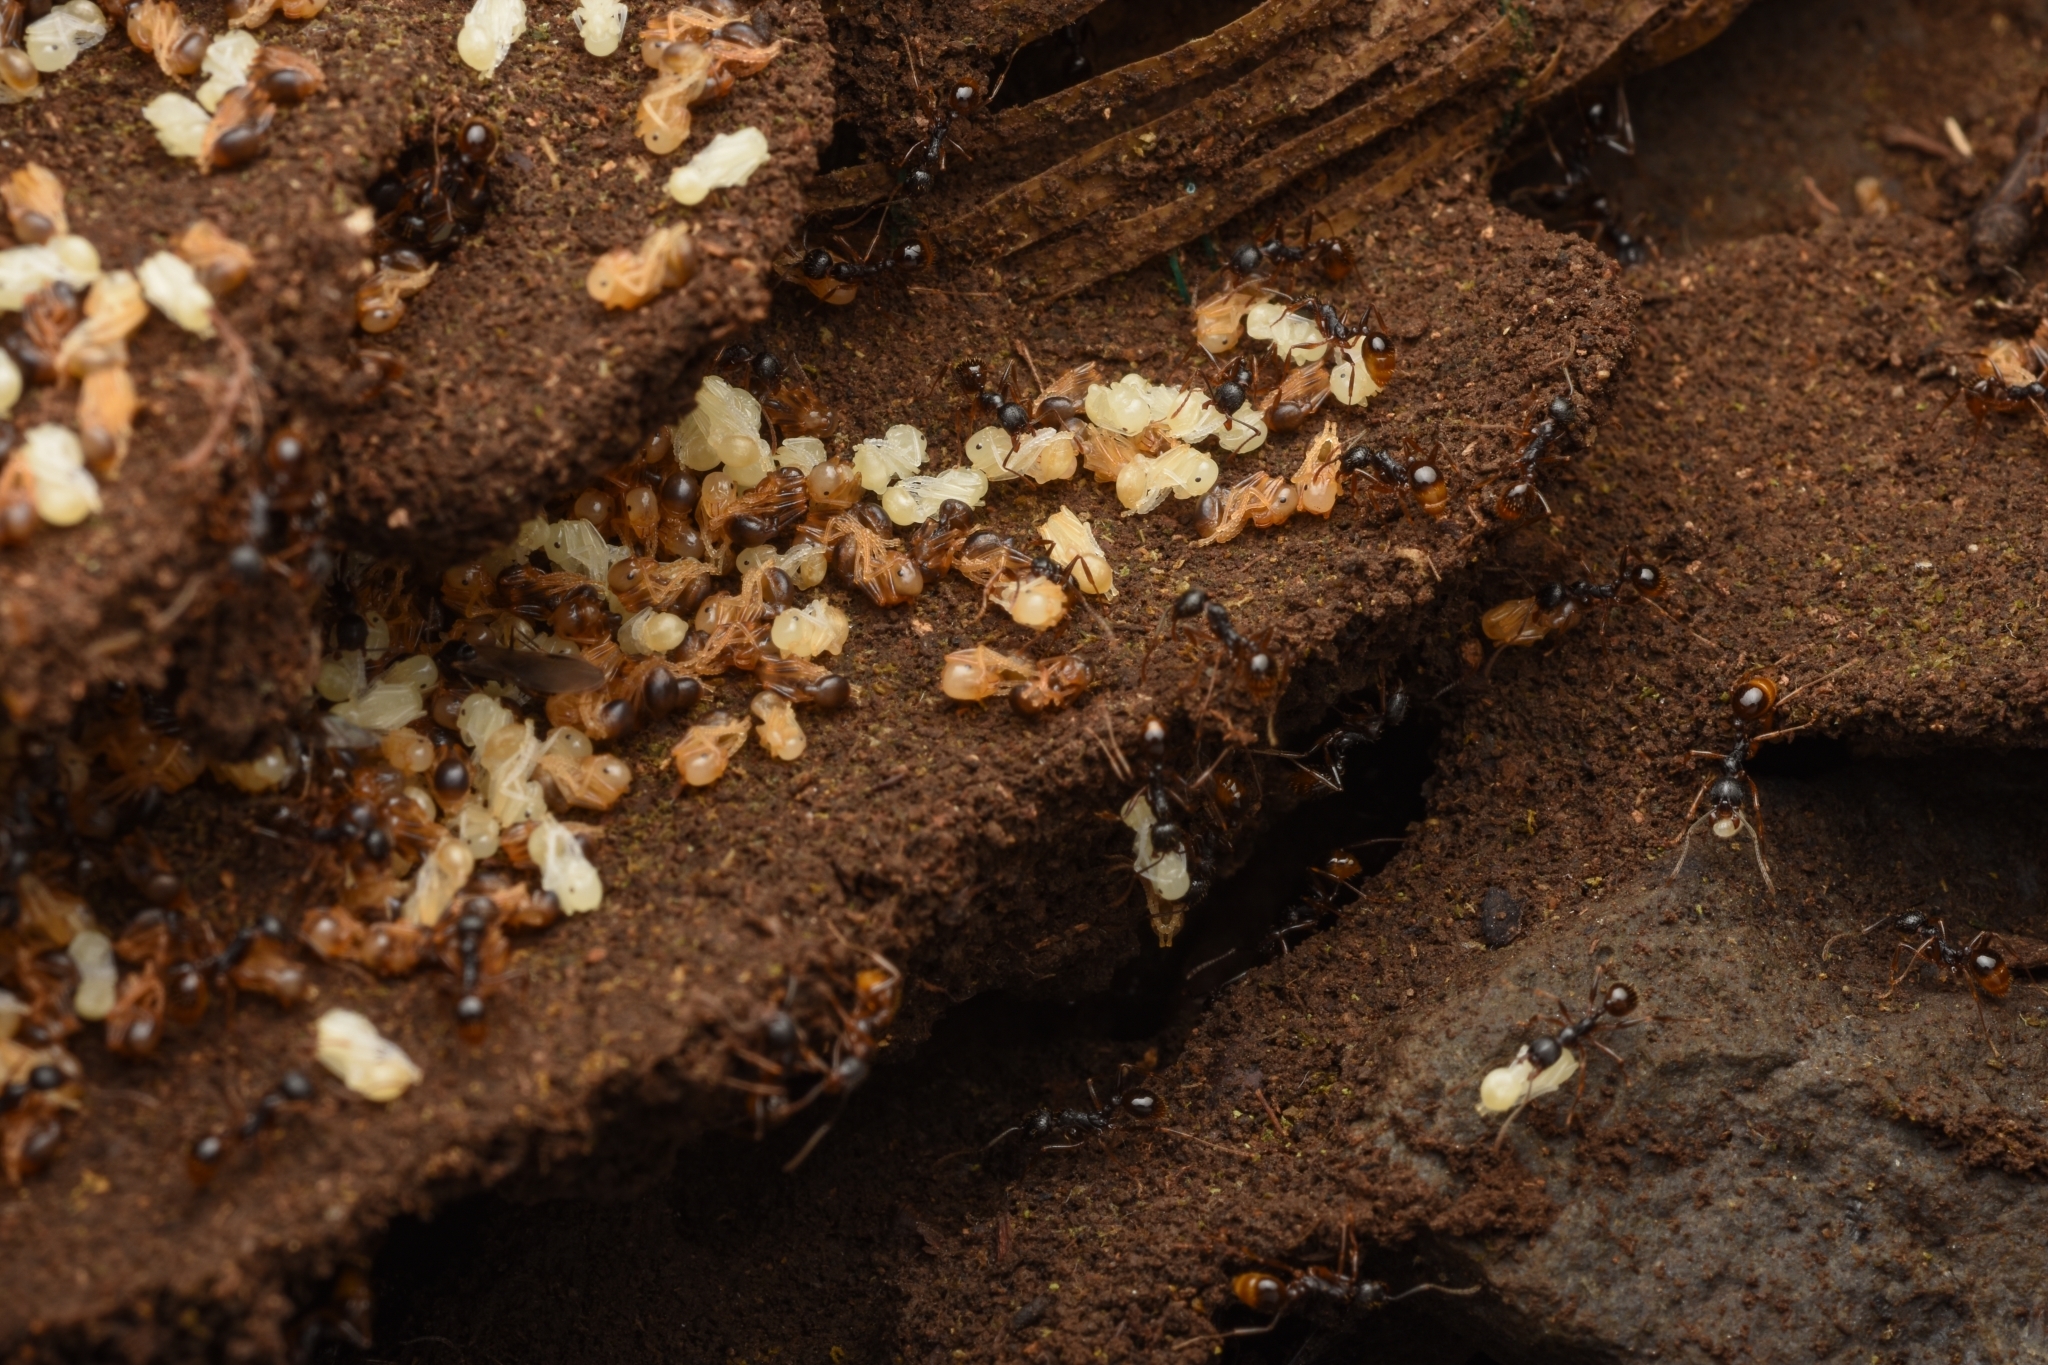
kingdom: Animalia
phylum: Arthropoda
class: Insecta
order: Hymenoptera
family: Formicidae
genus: Aphaenogaster
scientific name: Aphaenogaster japonica
